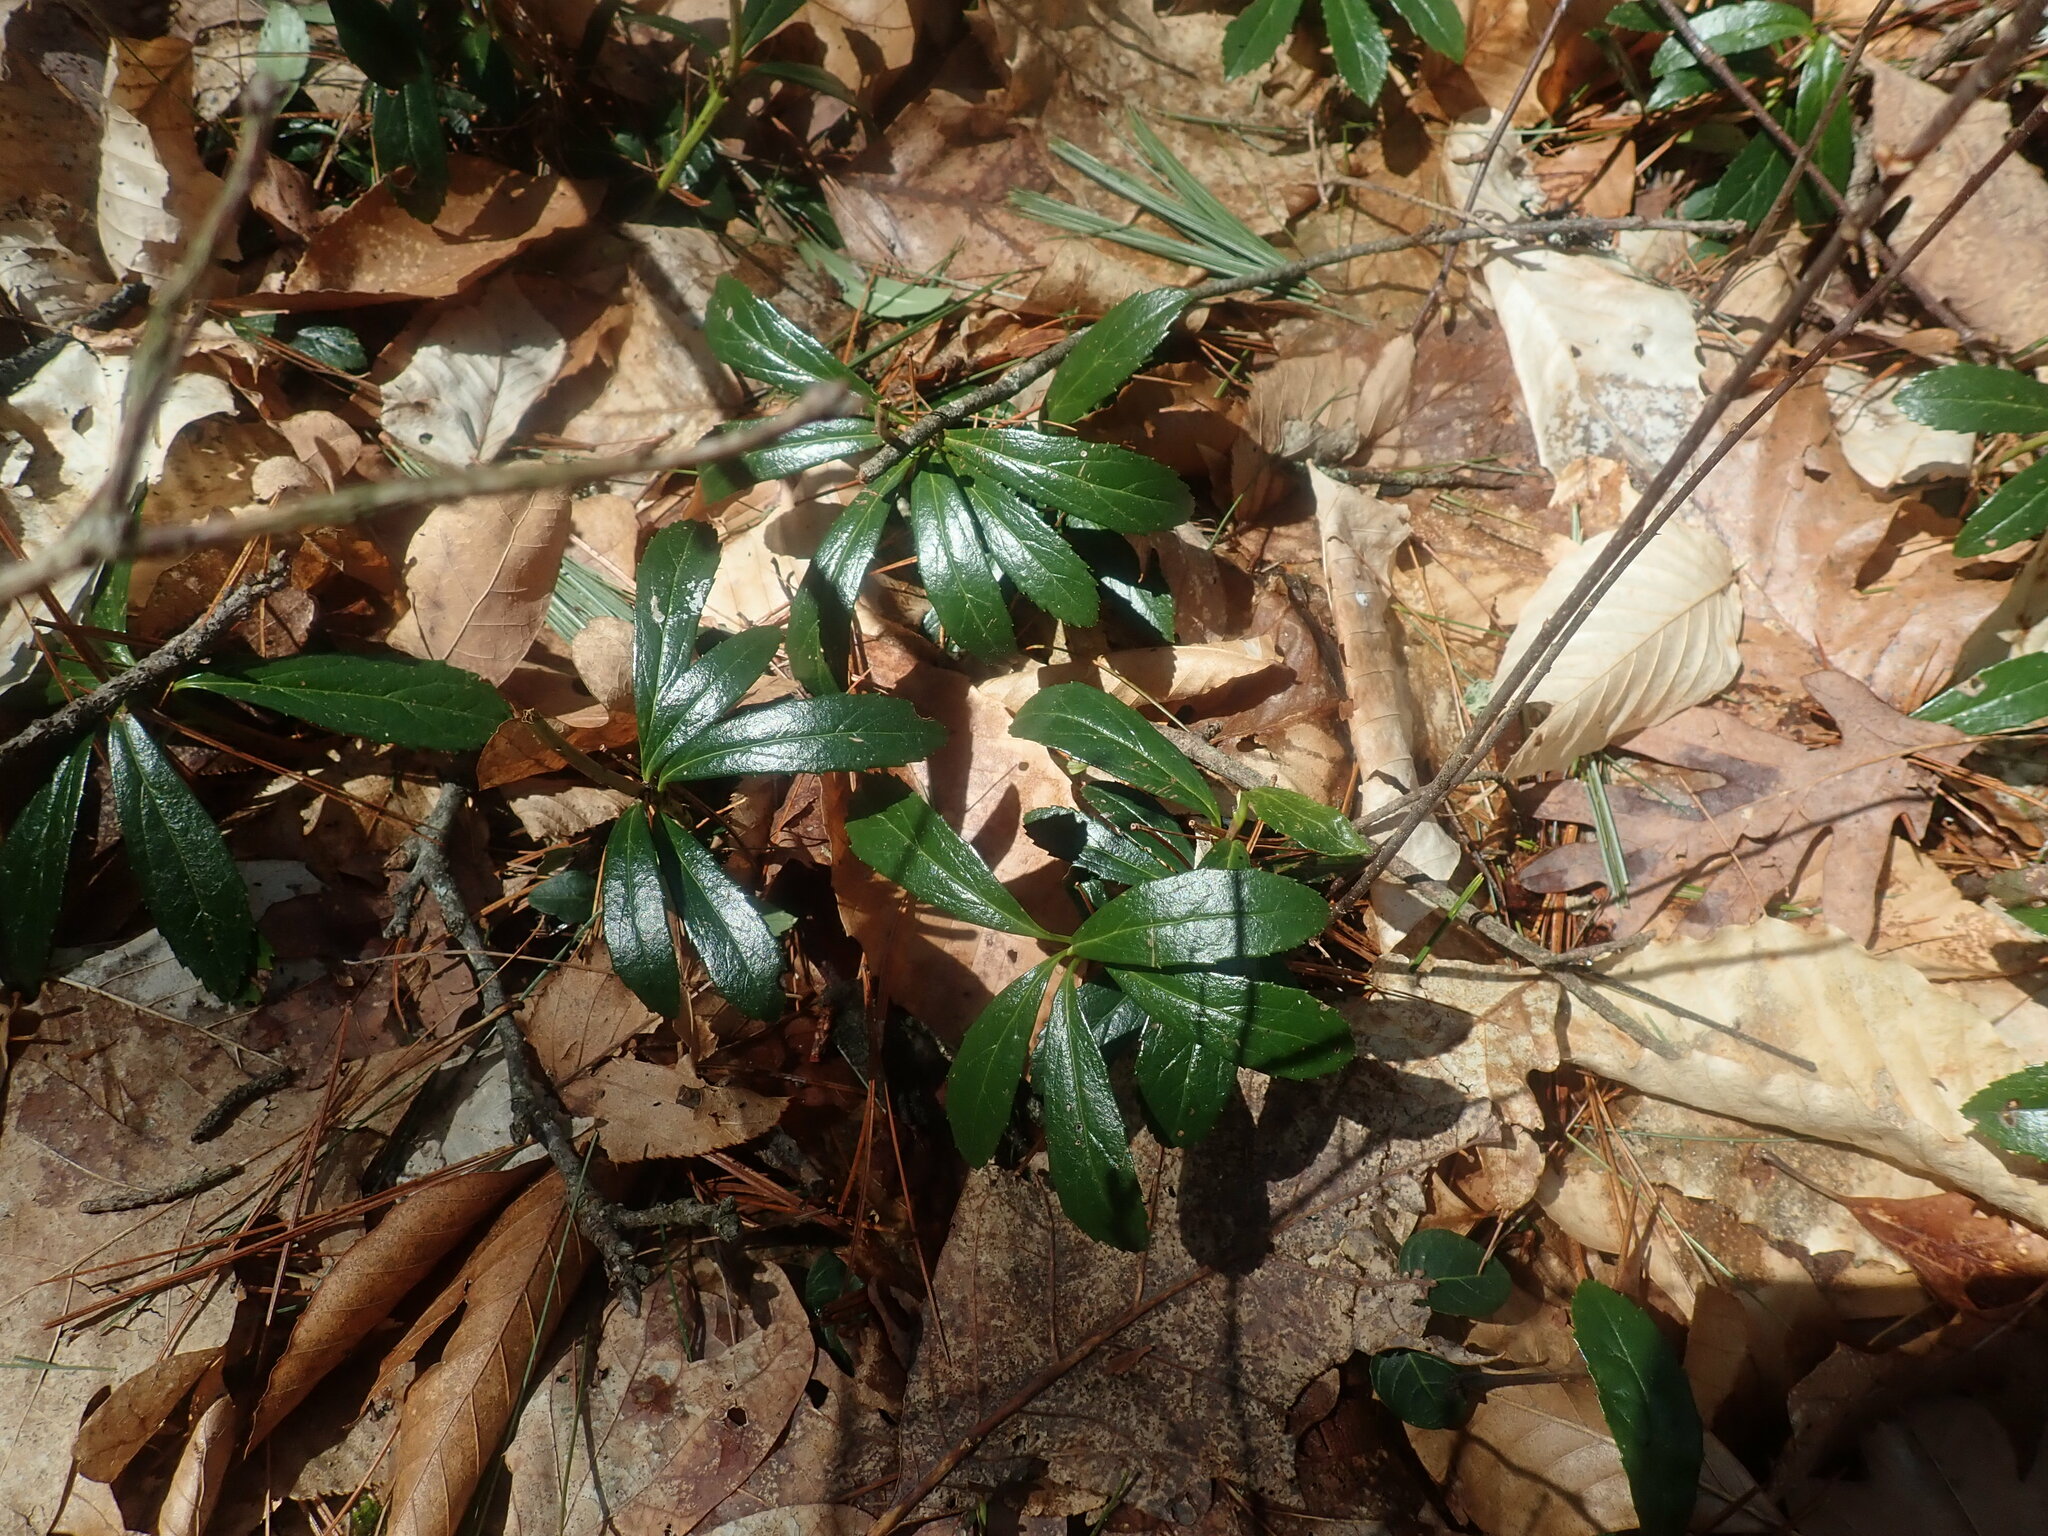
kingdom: Plantae
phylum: Tracheophyta
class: Magnoliopsida
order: Ericales
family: Ericaceae
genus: Chimaphila
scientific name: Chimaphila umbellata
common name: Pipsissewa
